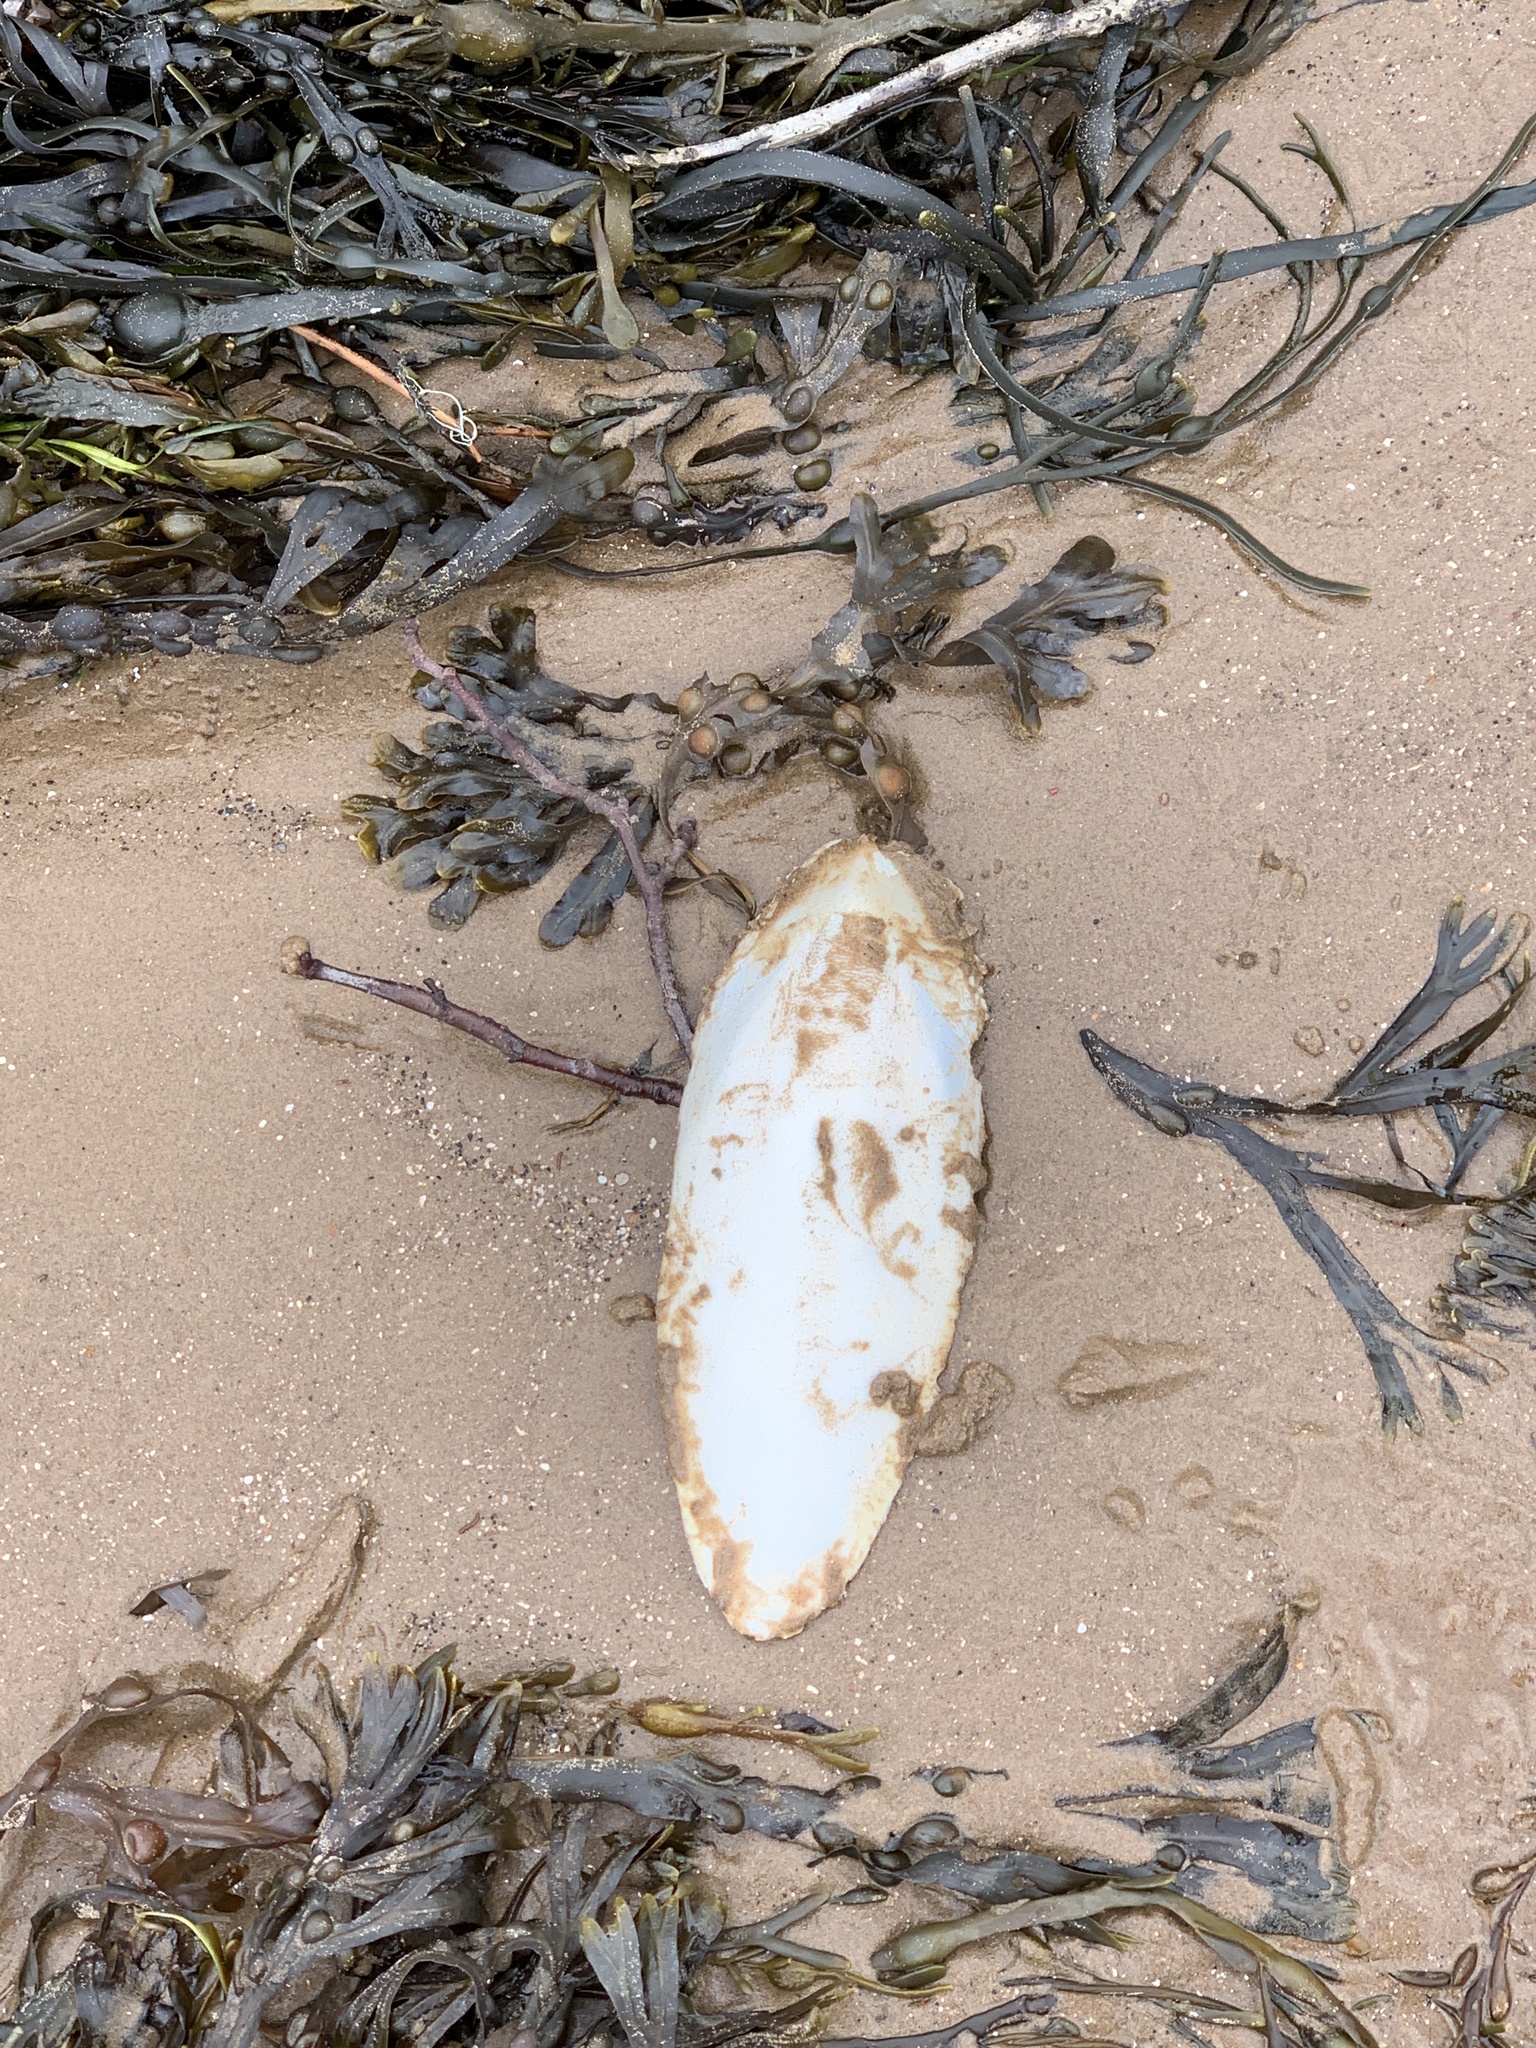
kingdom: Animalia
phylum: Mollusca
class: Cephalopoda
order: Sepiida
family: Sepiidae
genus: Sepia
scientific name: Sepia officinalis
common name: Common cuttlefish
